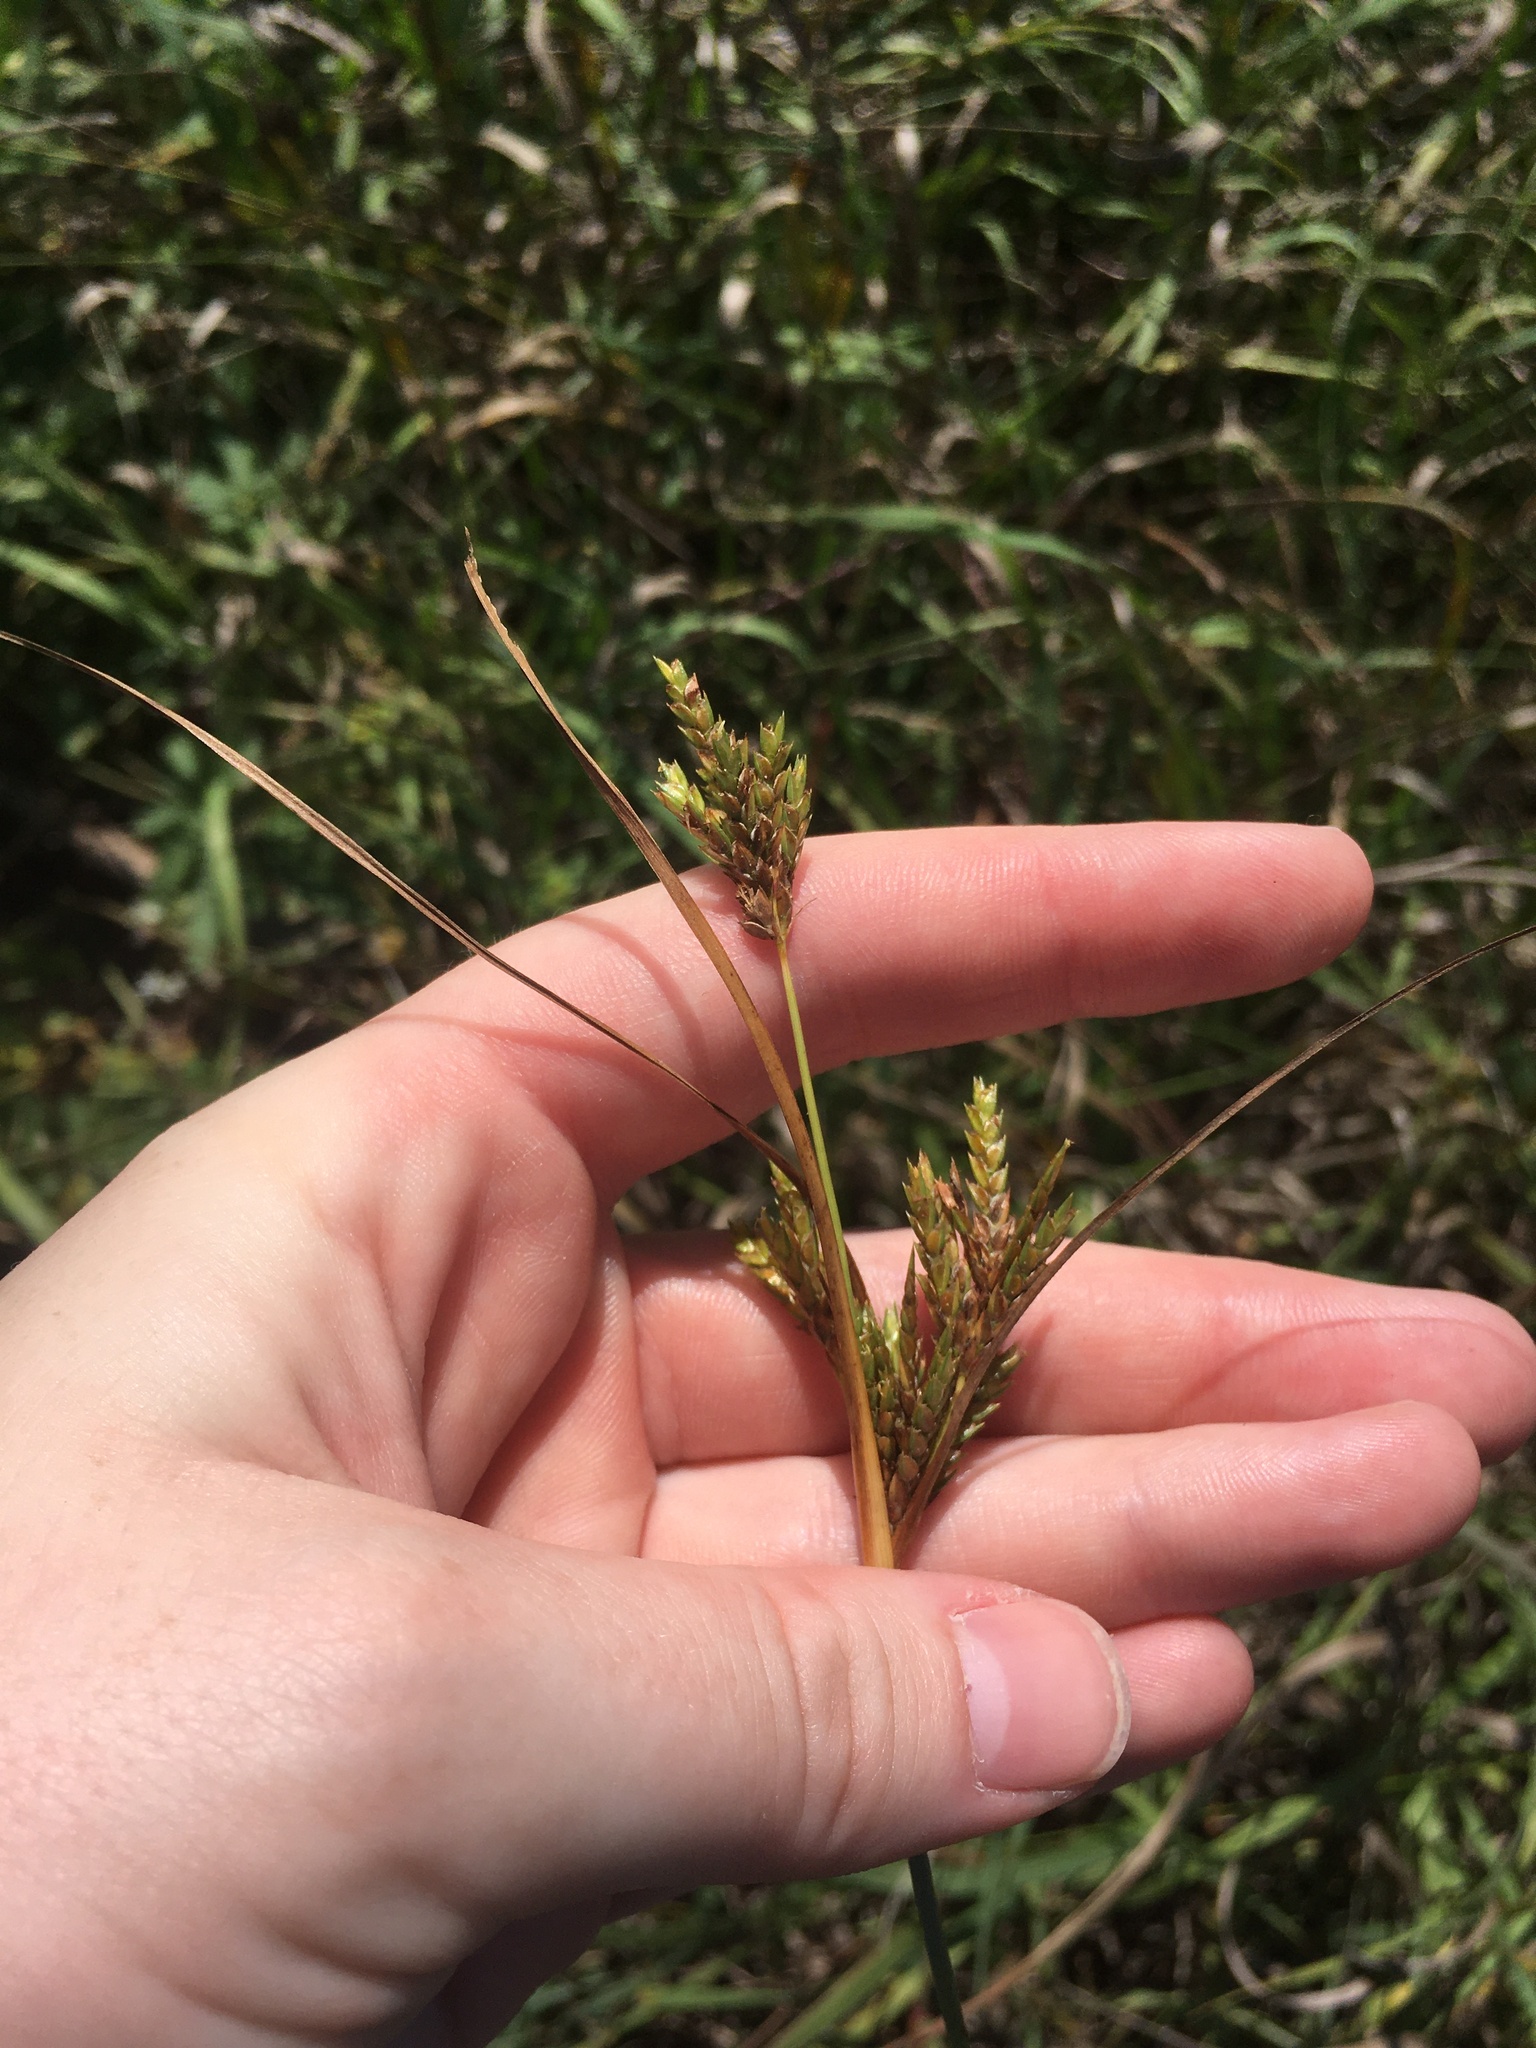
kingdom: Plantae
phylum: Tracheophyta
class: Liliopsida
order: Poales
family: Cyperaceae
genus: Cyperus
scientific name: Cyperus schweinitzii
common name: Schweinitz's cyperus
